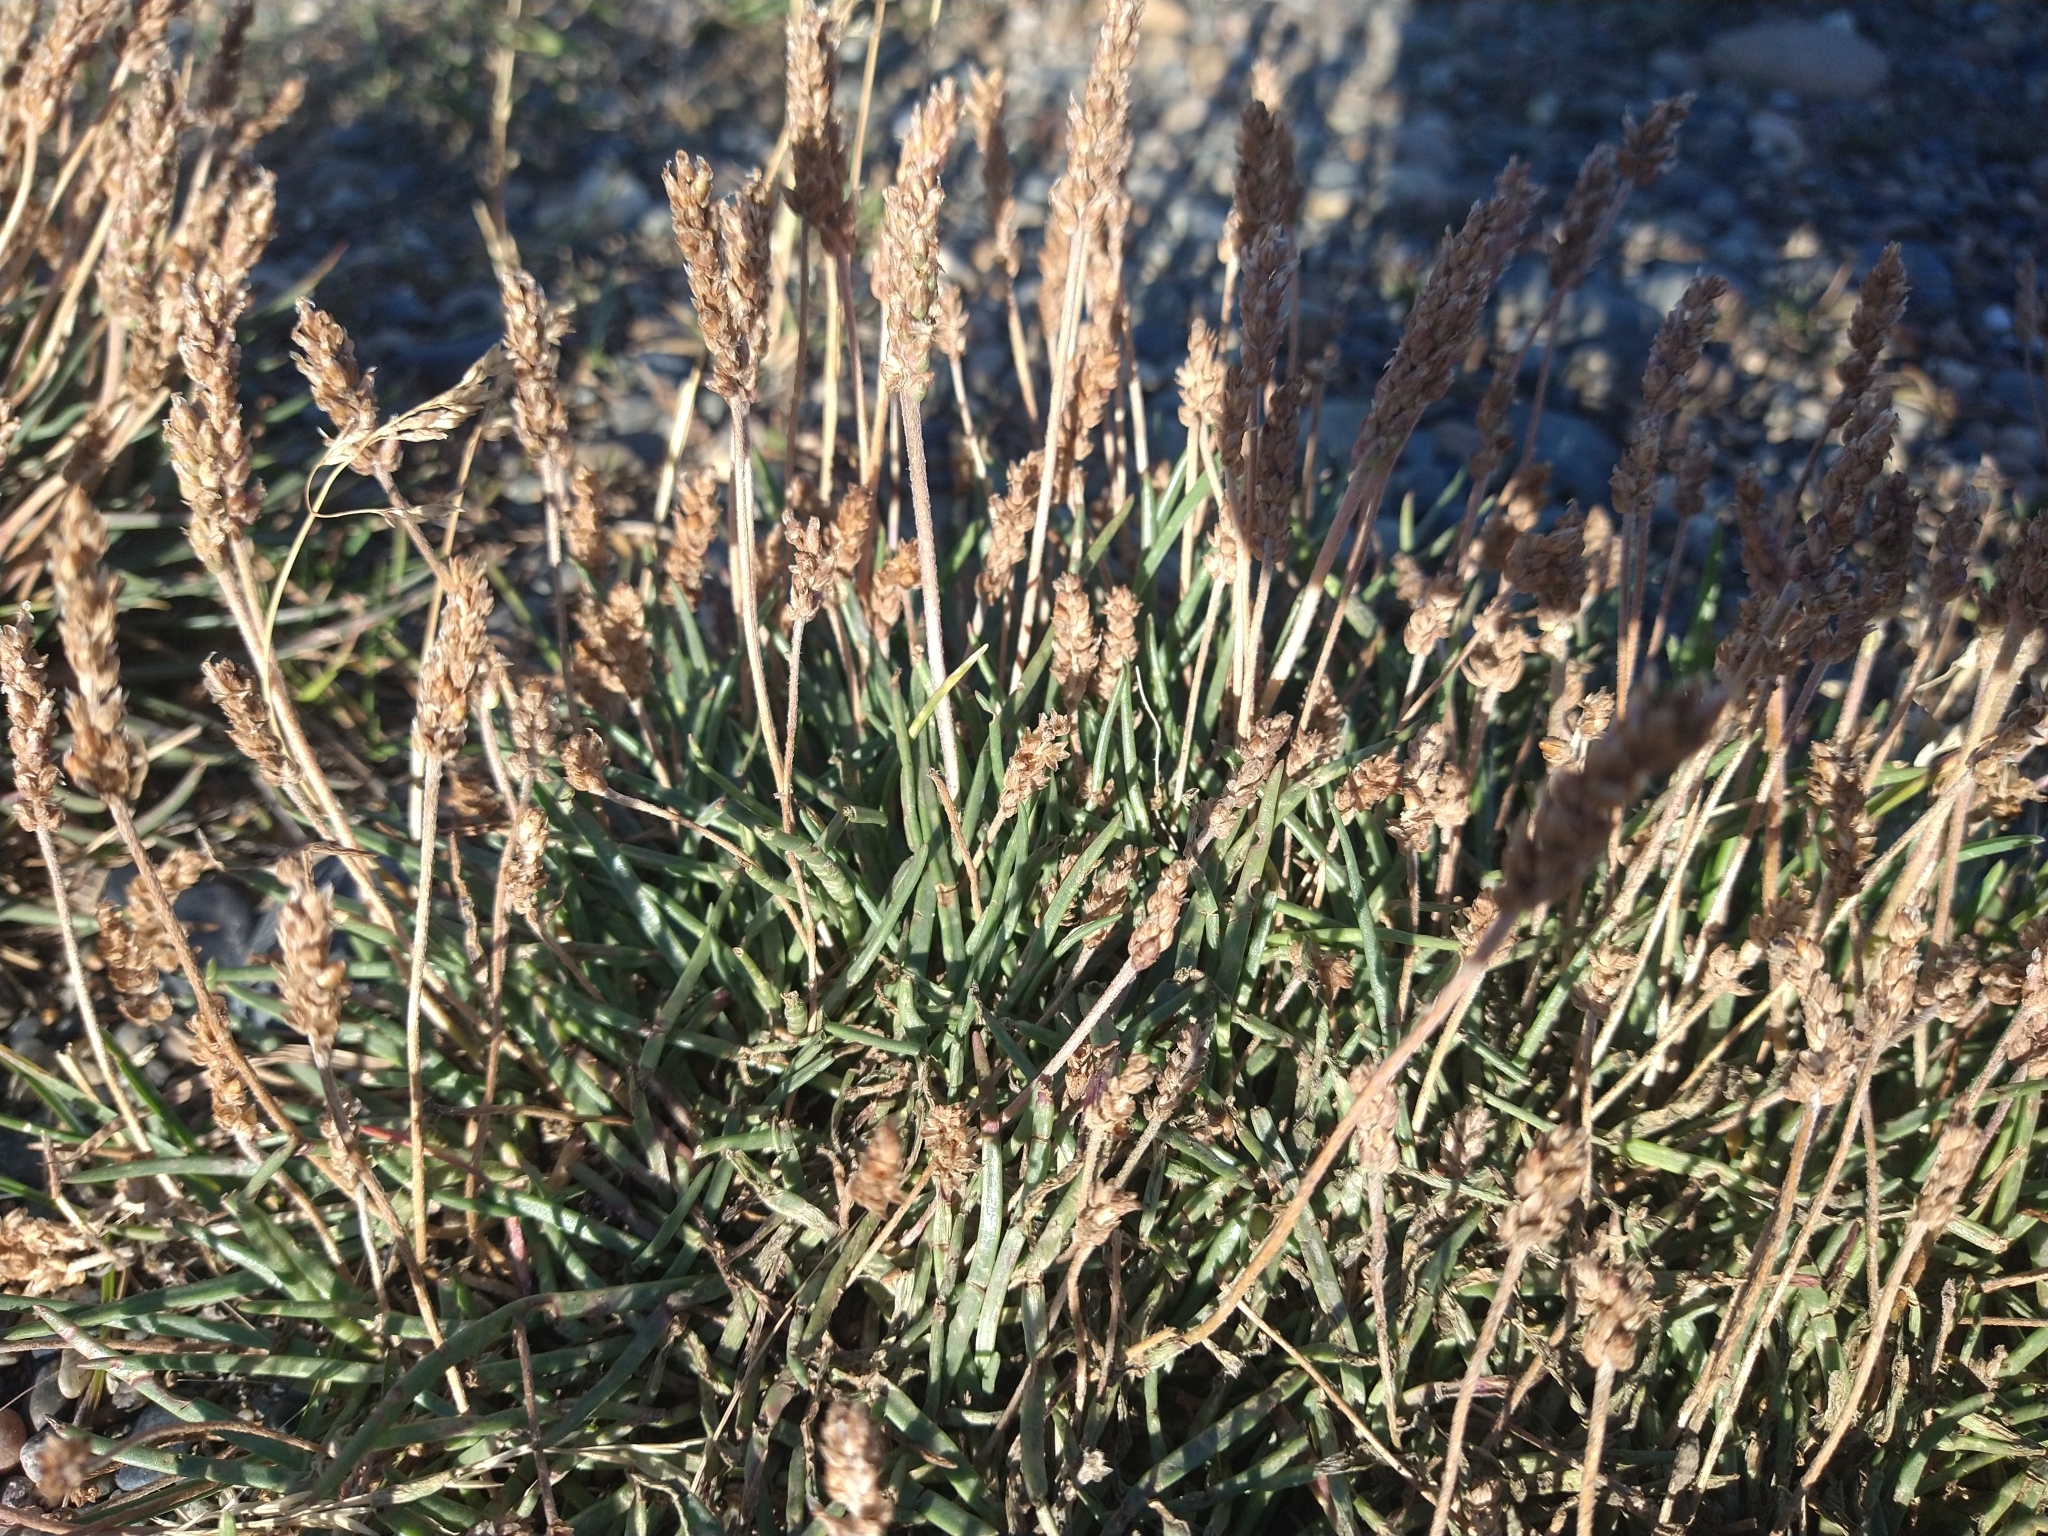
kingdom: Plantae
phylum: Tracheophyta
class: Magnoliopsida
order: Lamiales
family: Plantaginaceae
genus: Plantago
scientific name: Plantago maritima
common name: Sea plantain
